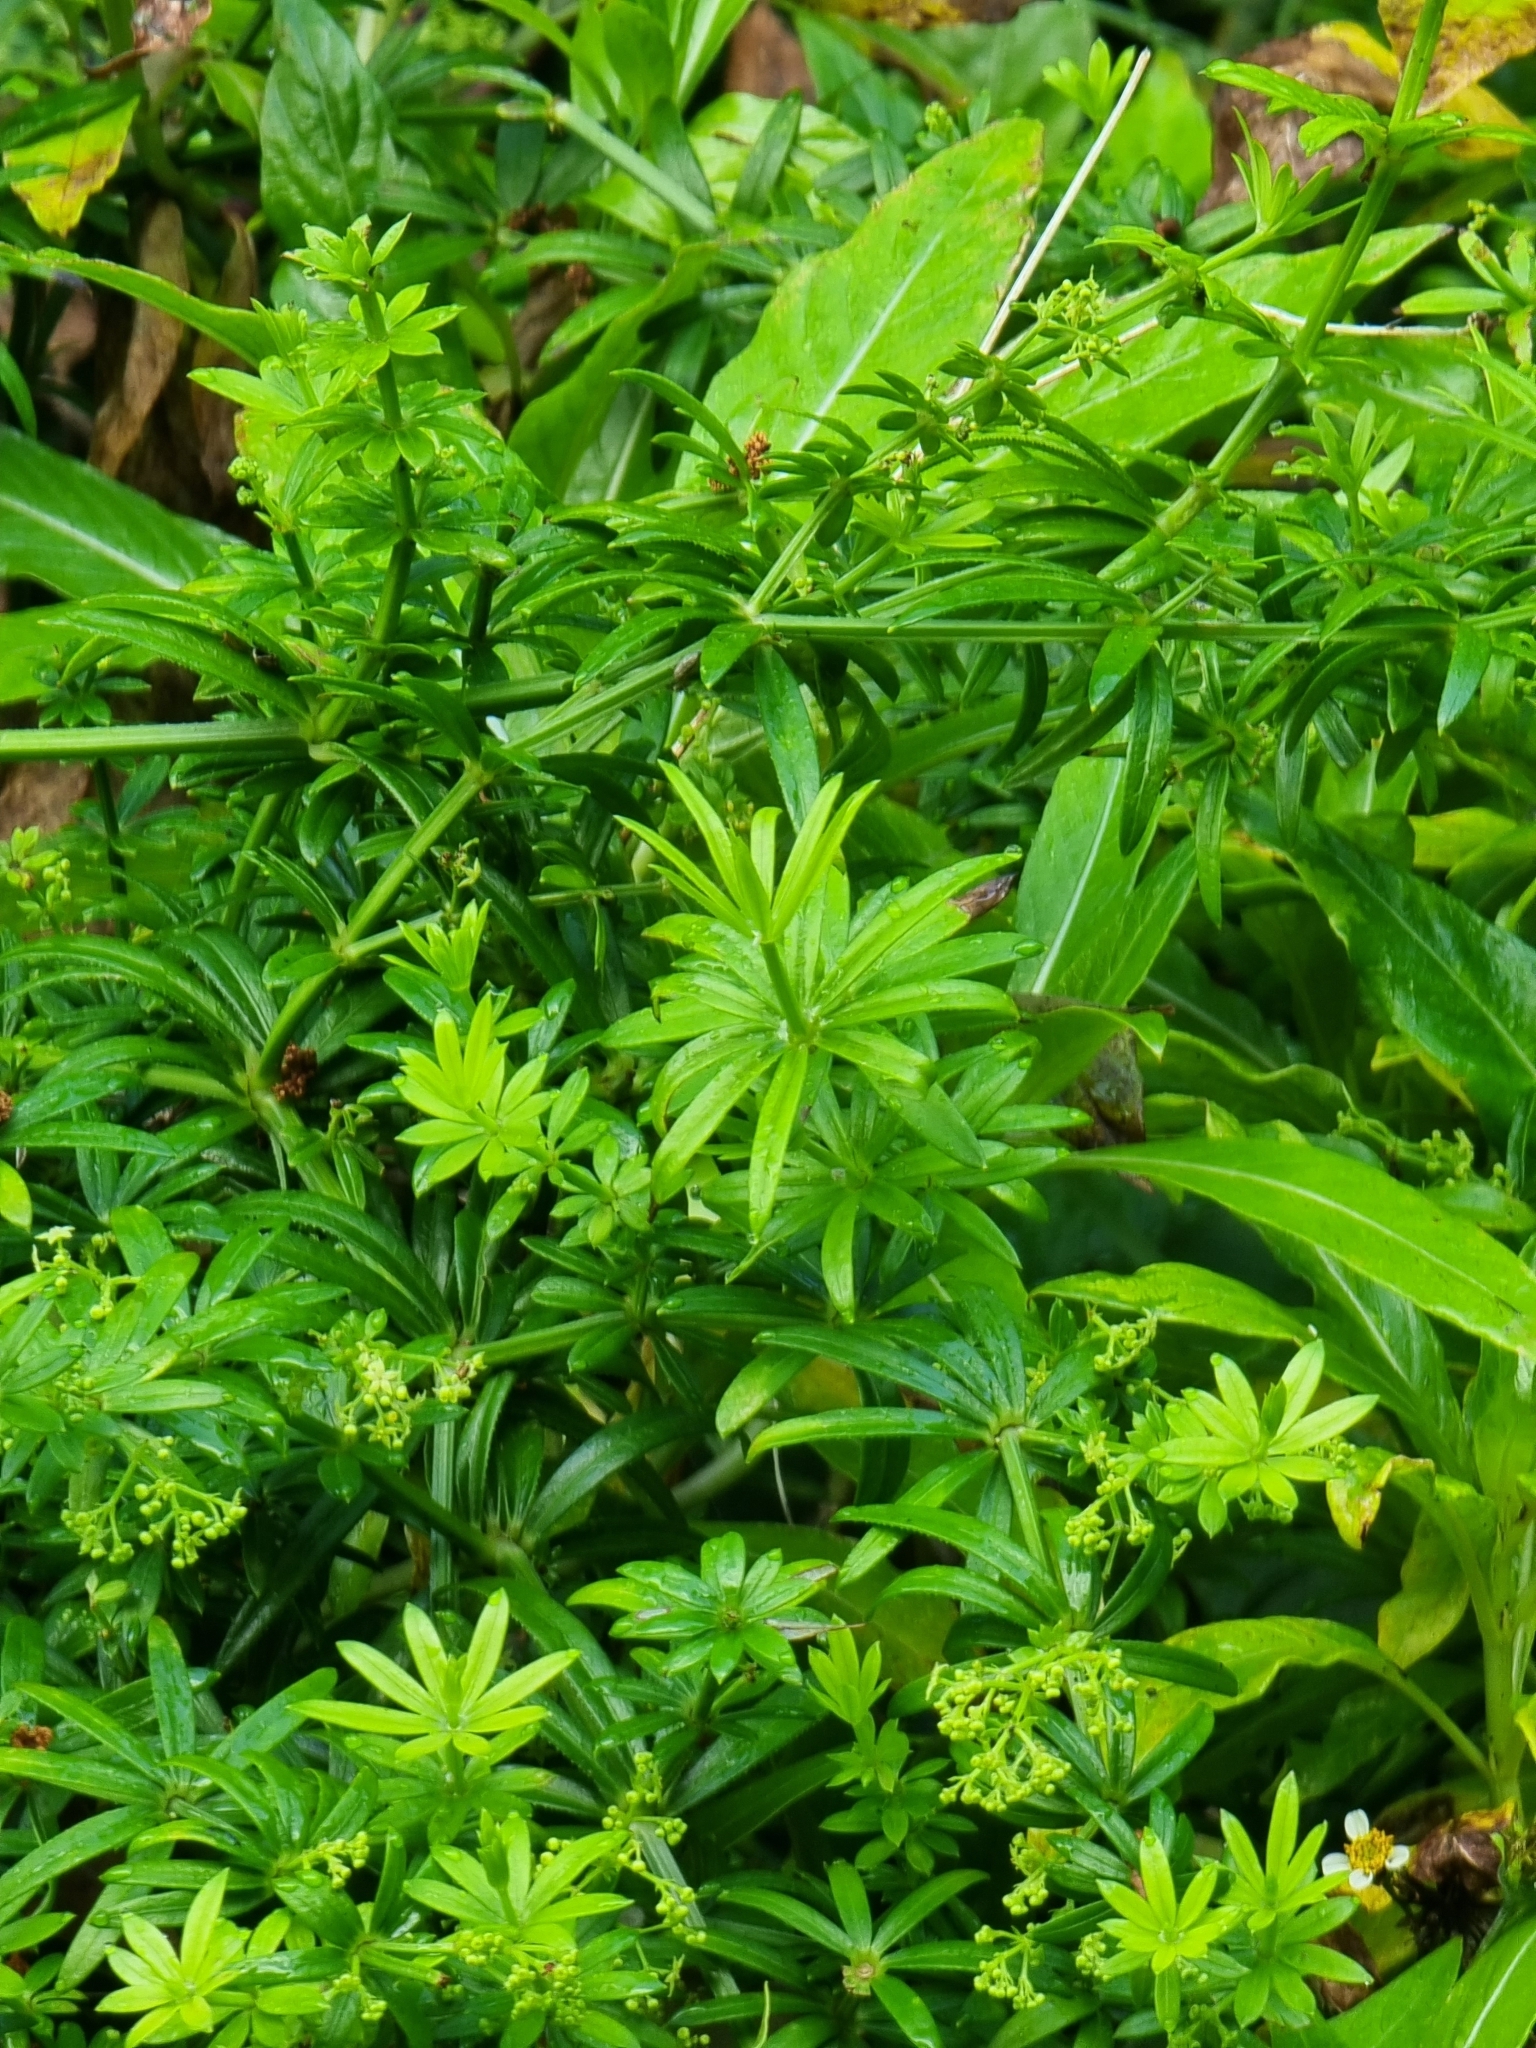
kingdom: Plantae
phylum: Tracheophyta
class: Magnoliopsida
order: Gentianales
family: Rubiaceae
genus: Rubia
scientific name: Rubia occidens
